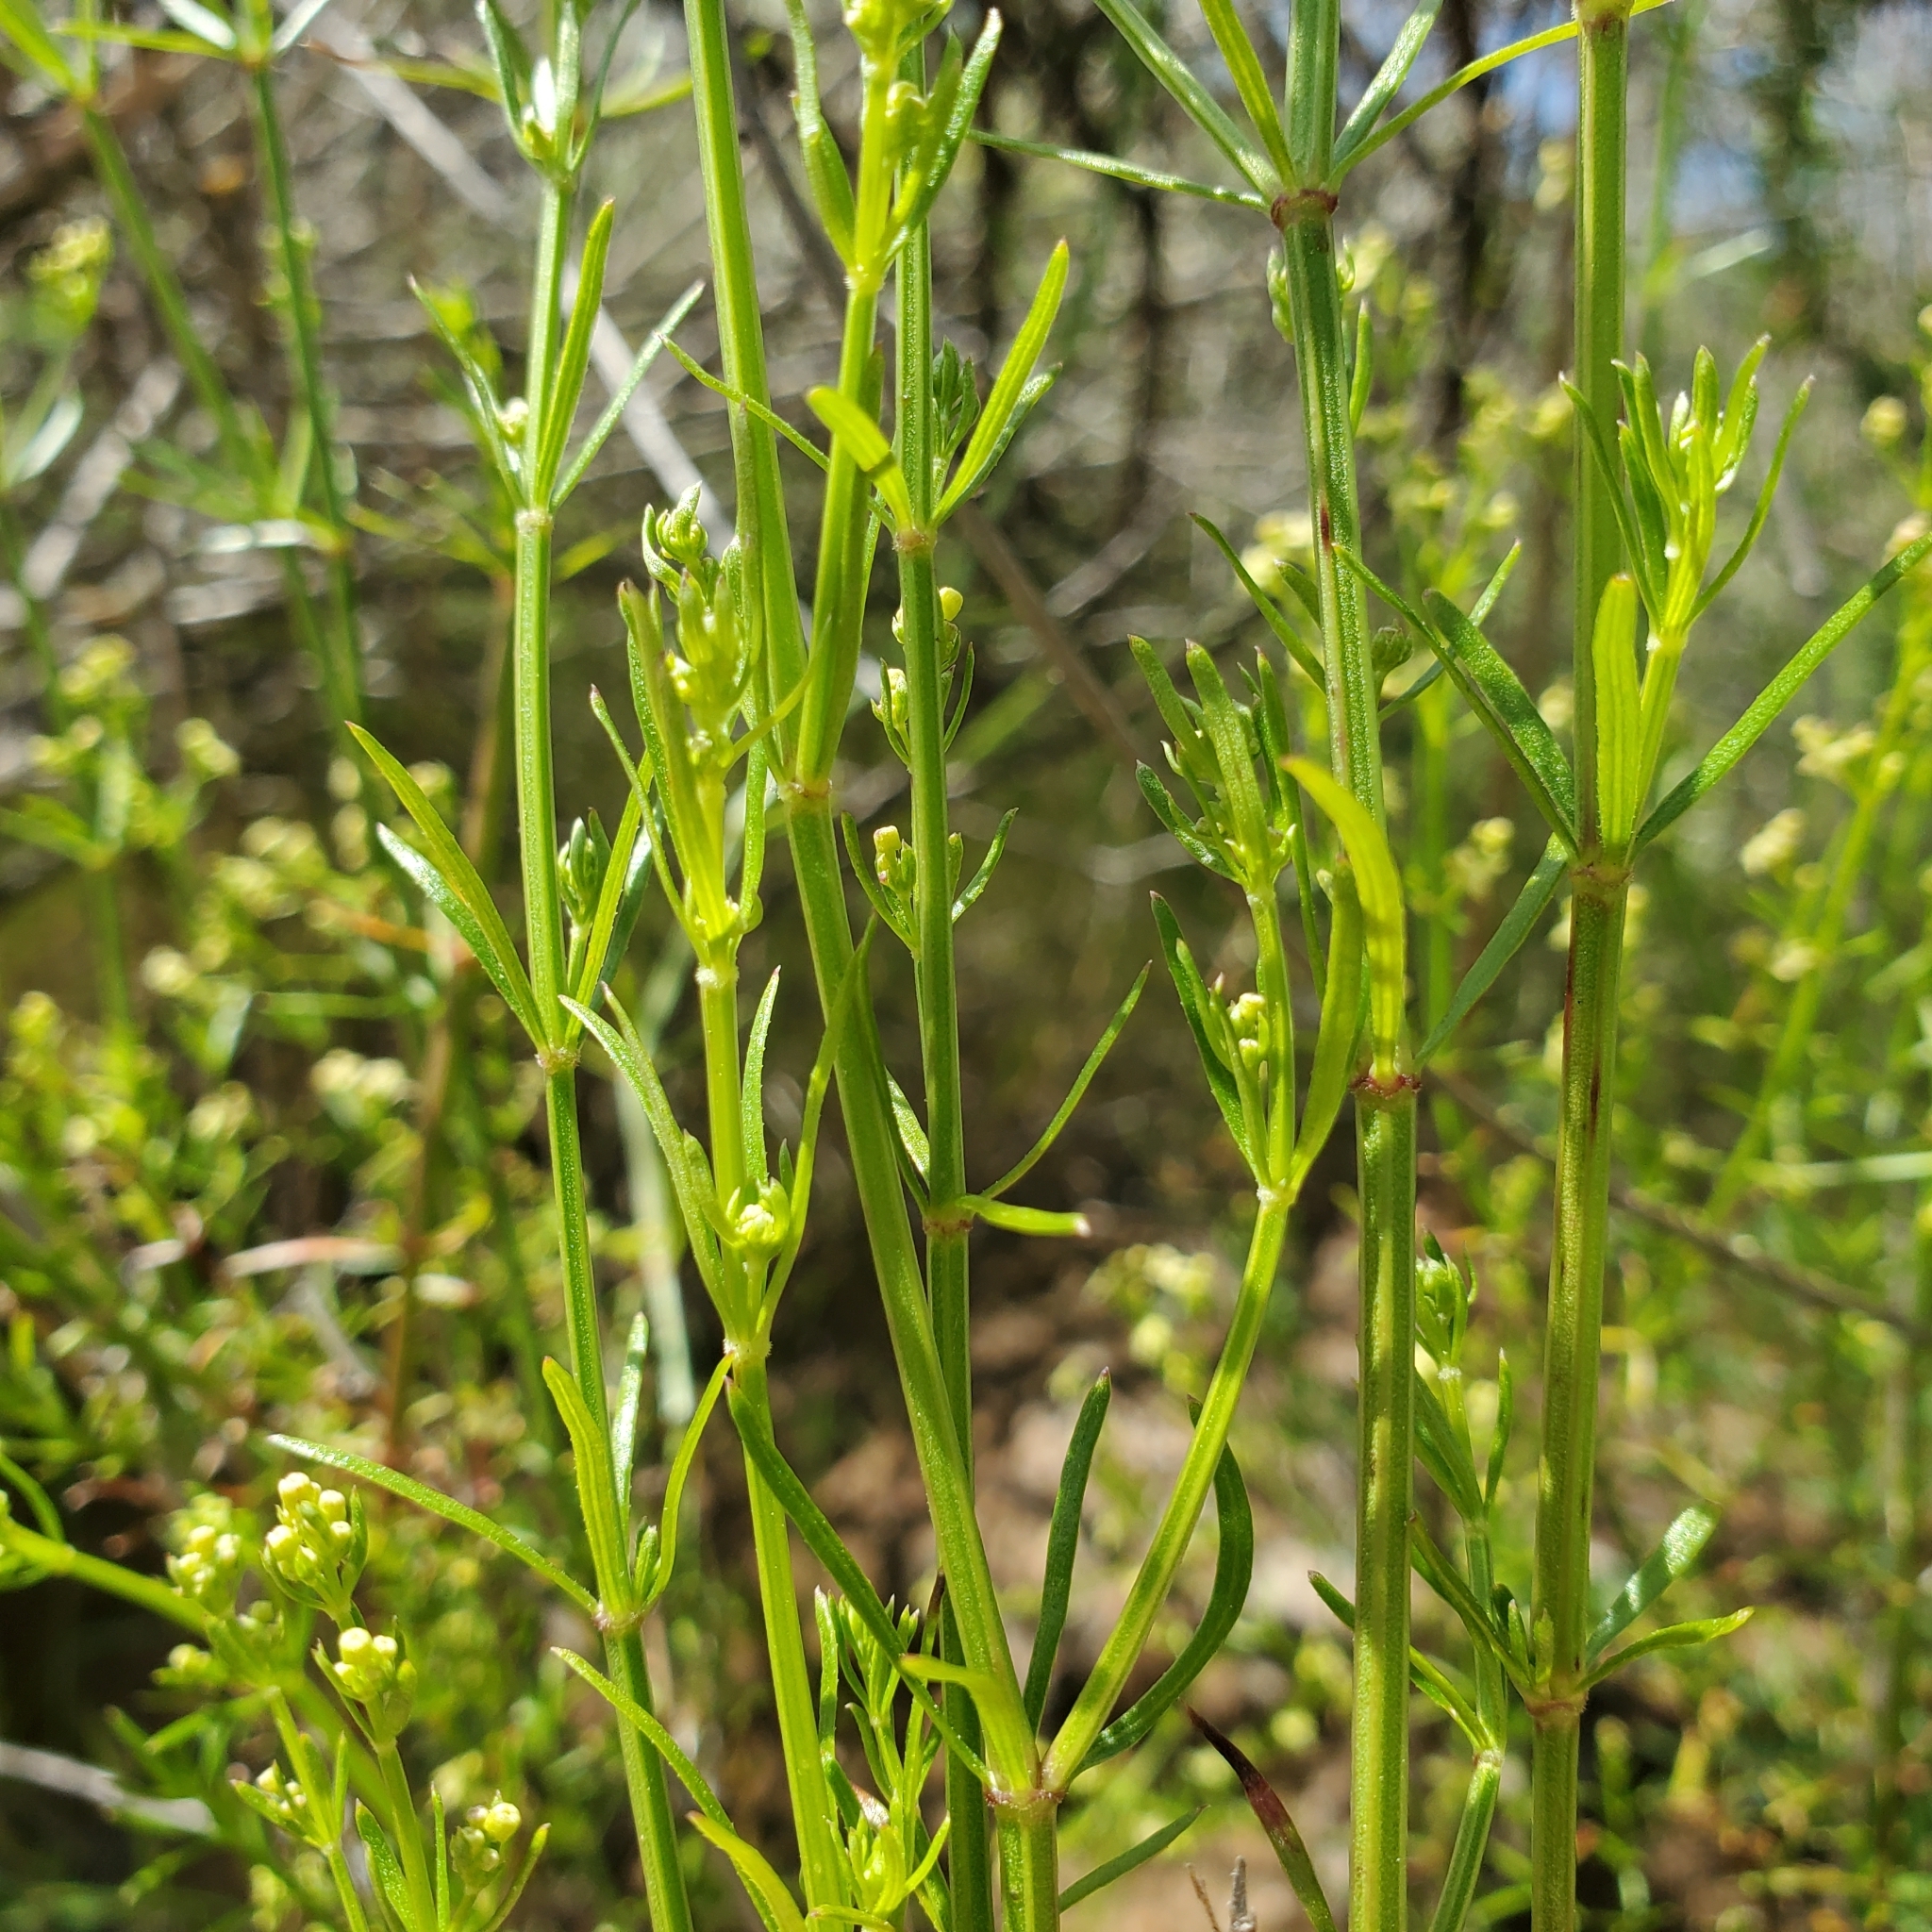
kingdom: Plantae
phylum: Tracheophyta
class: Magnoliopsida
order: Gentianales
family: Rubiaceae
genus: Galium
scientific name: Galium angustifolium
